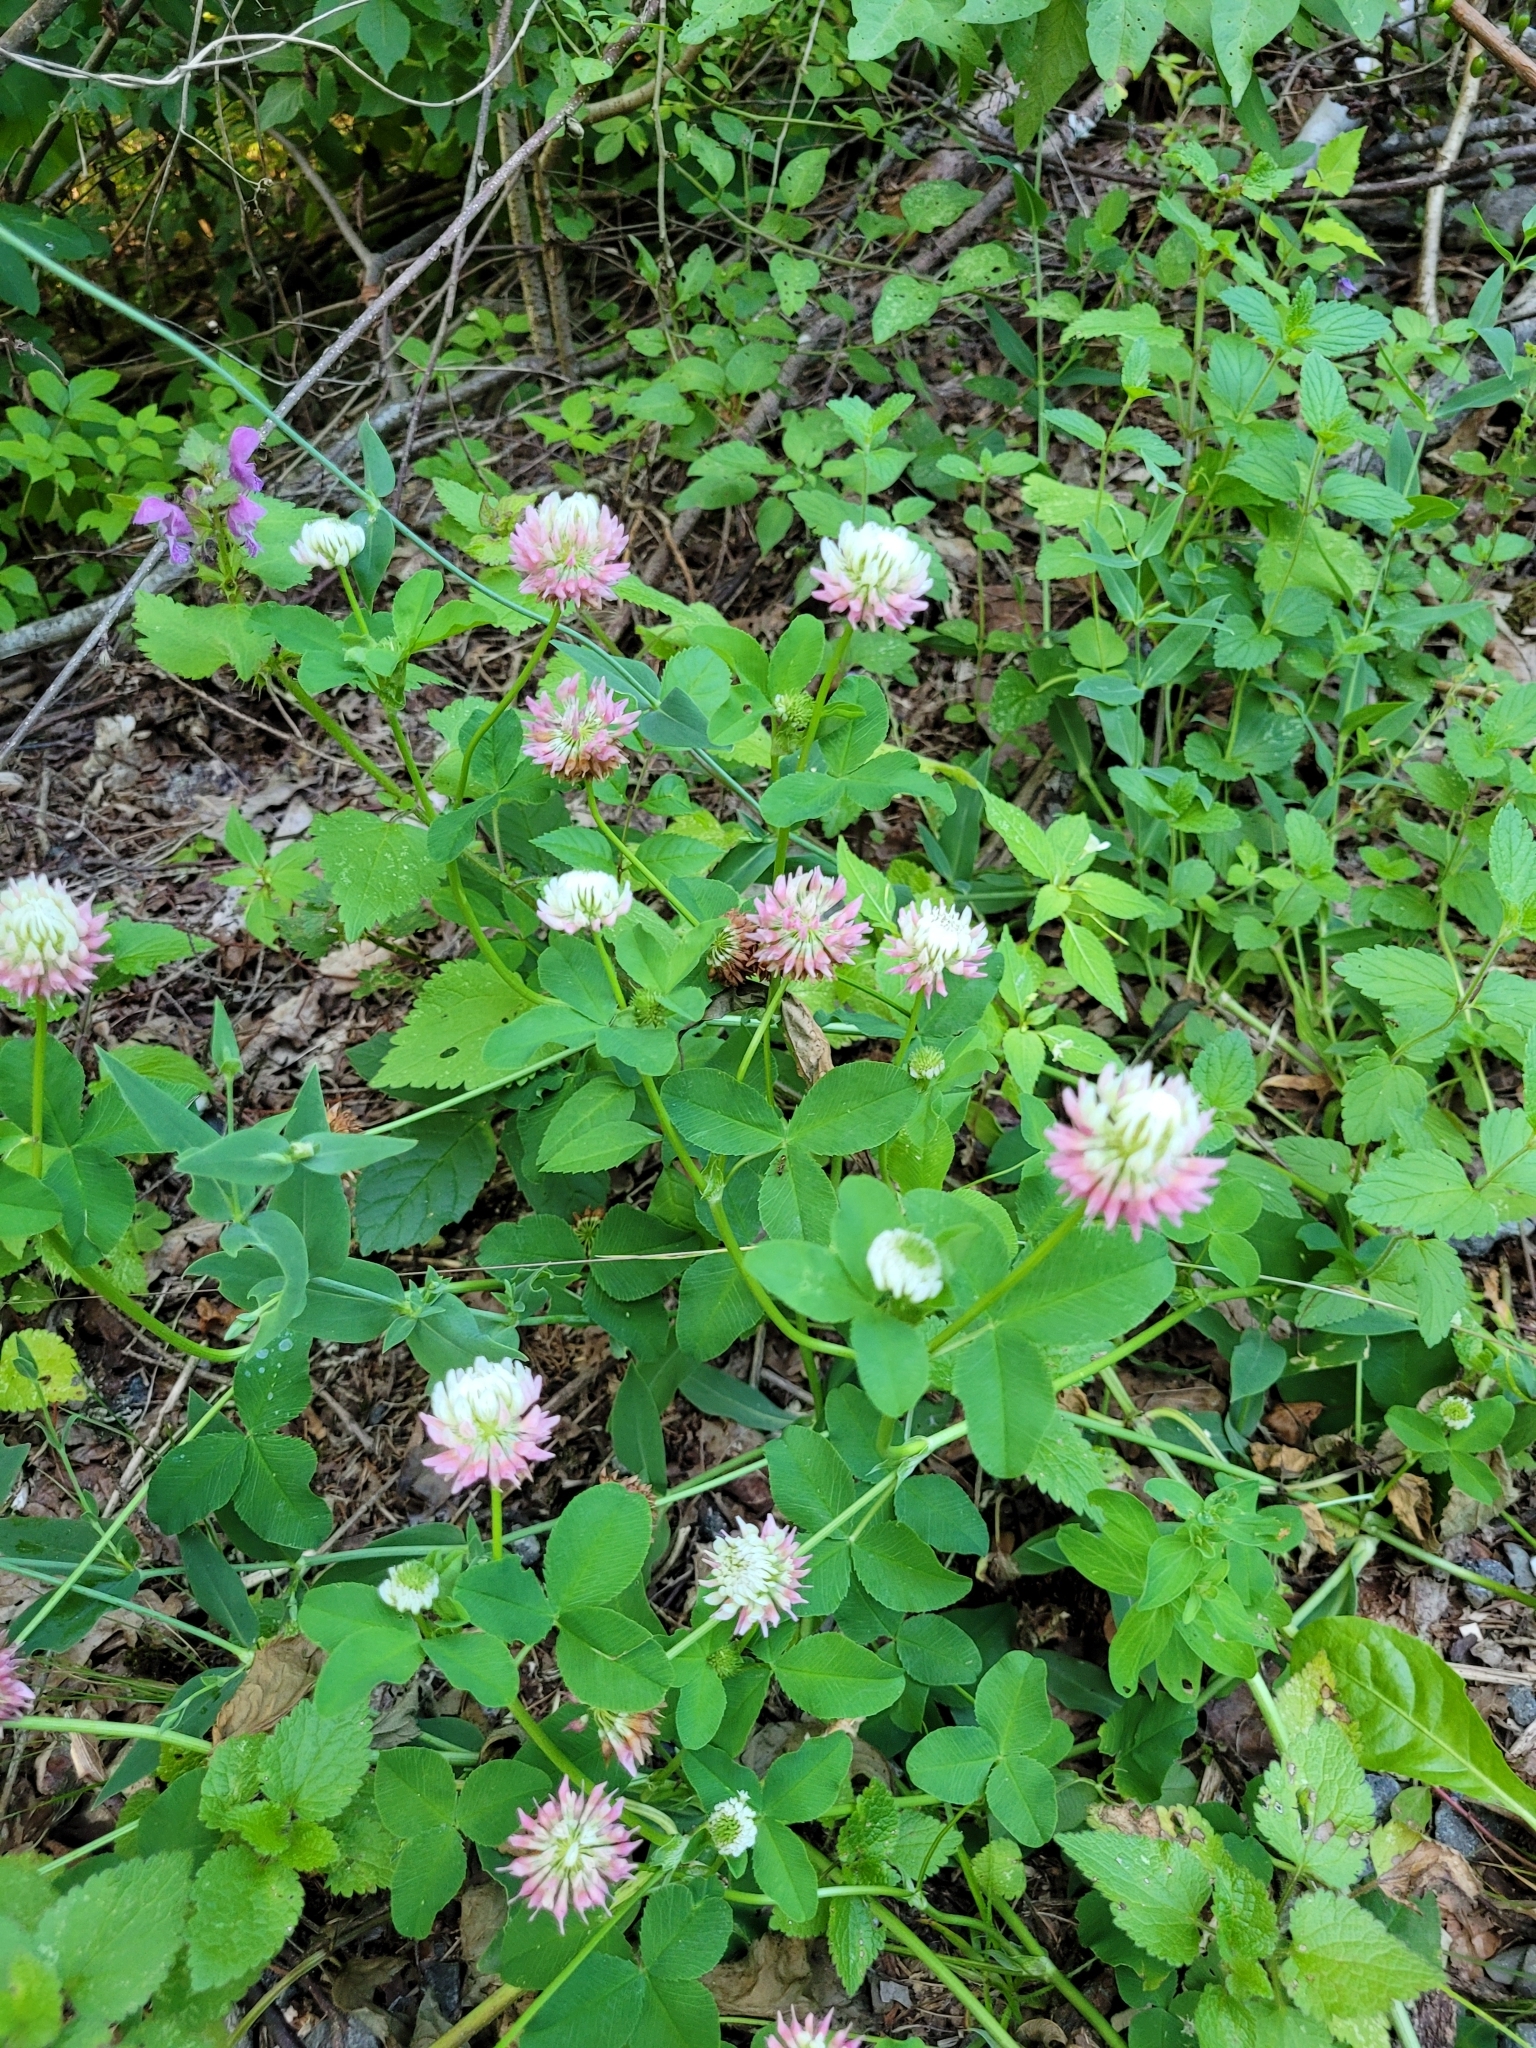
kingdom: Plantae
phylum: Tracheophyta
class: Magnoliopsida
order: Fabales
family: Fabaceae
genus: Trifolium
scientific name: Trifolium hybridum
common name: Alsike clover
